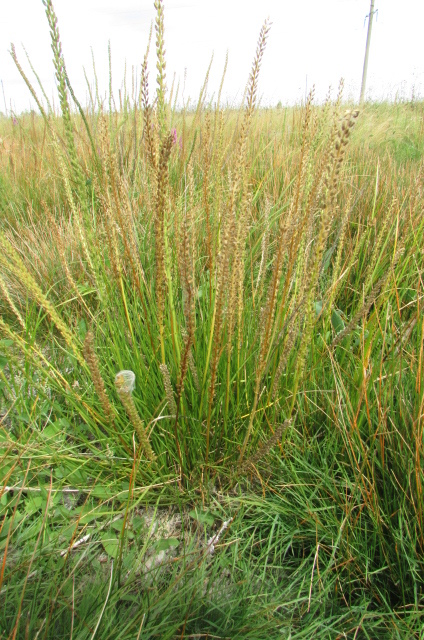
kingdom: Plantae
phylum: Tracheophyta
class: Liliopsida
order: Alismatales
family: Juncaginaceae
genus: Triglochin
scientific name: Triglochin maritima
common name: Sea arrowgrass
